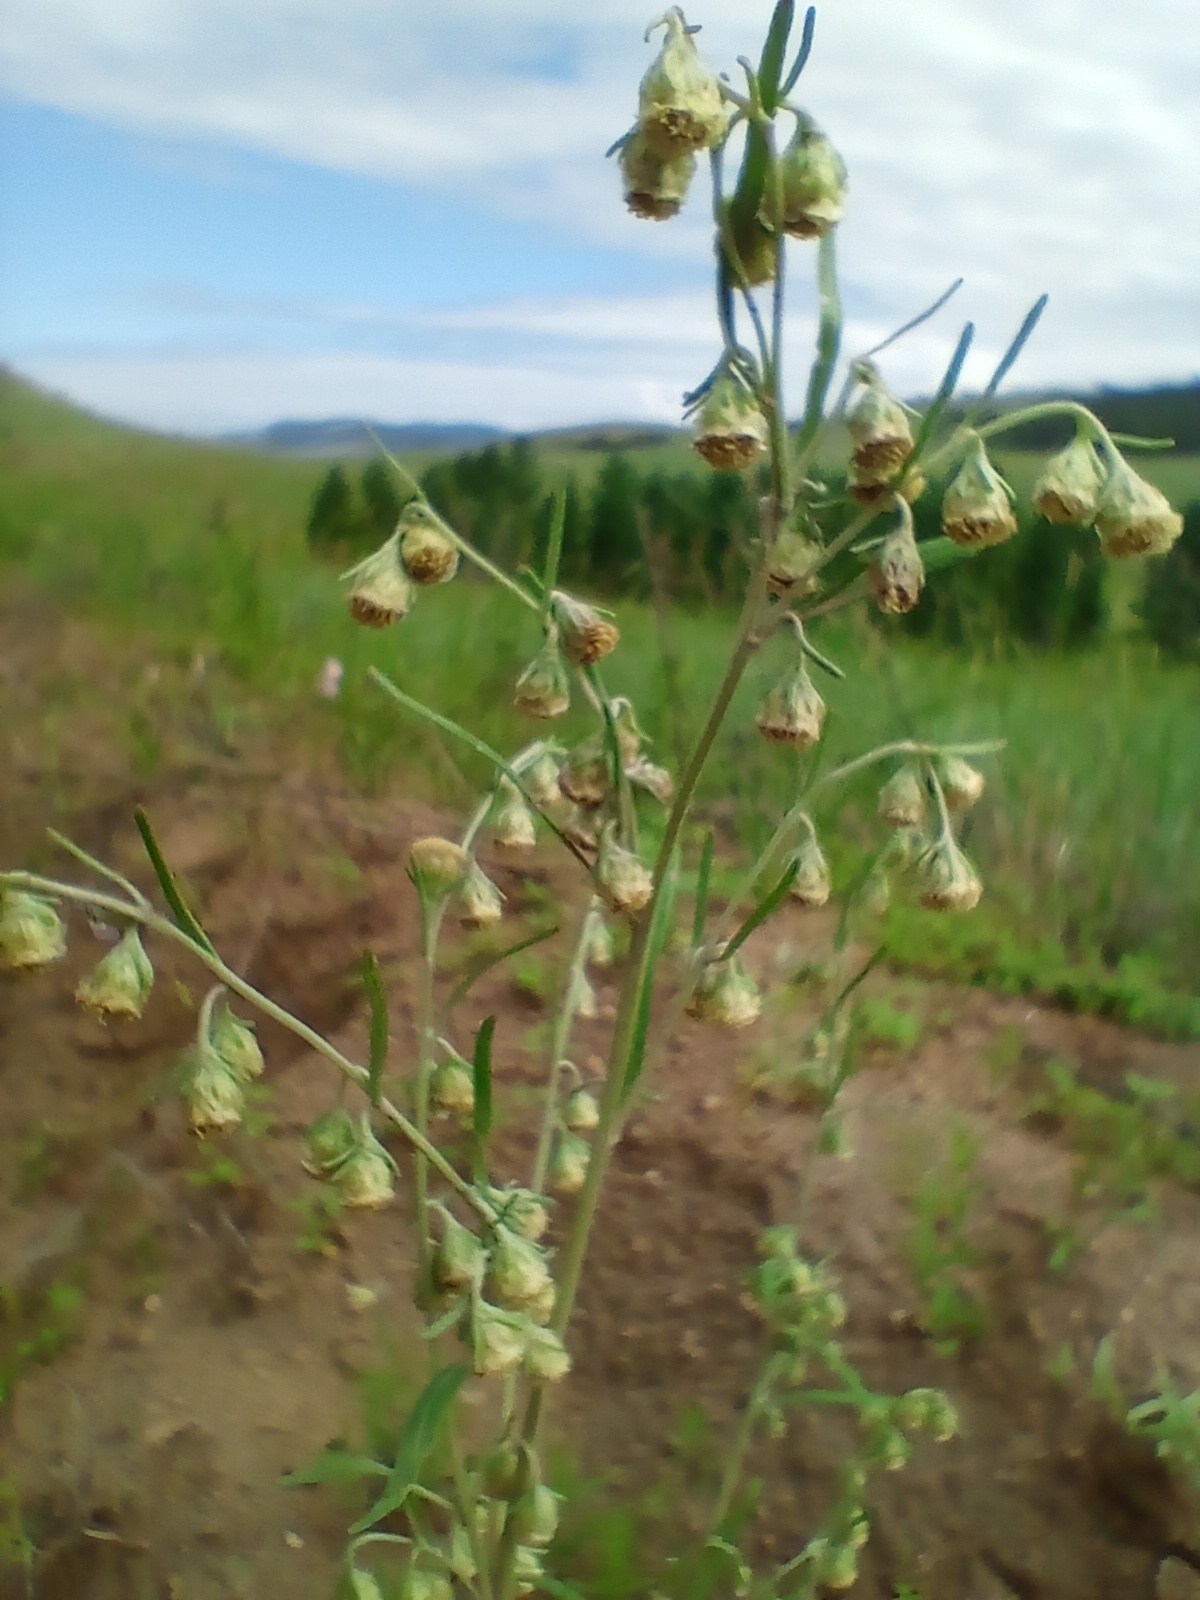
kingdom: Plantae
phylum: Tracheophyta
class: Magnoliopsida
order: Asterales
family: Asteraceae
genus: Artemisia
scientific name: Artemisia sieversiana
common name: Sieversian wormwood
